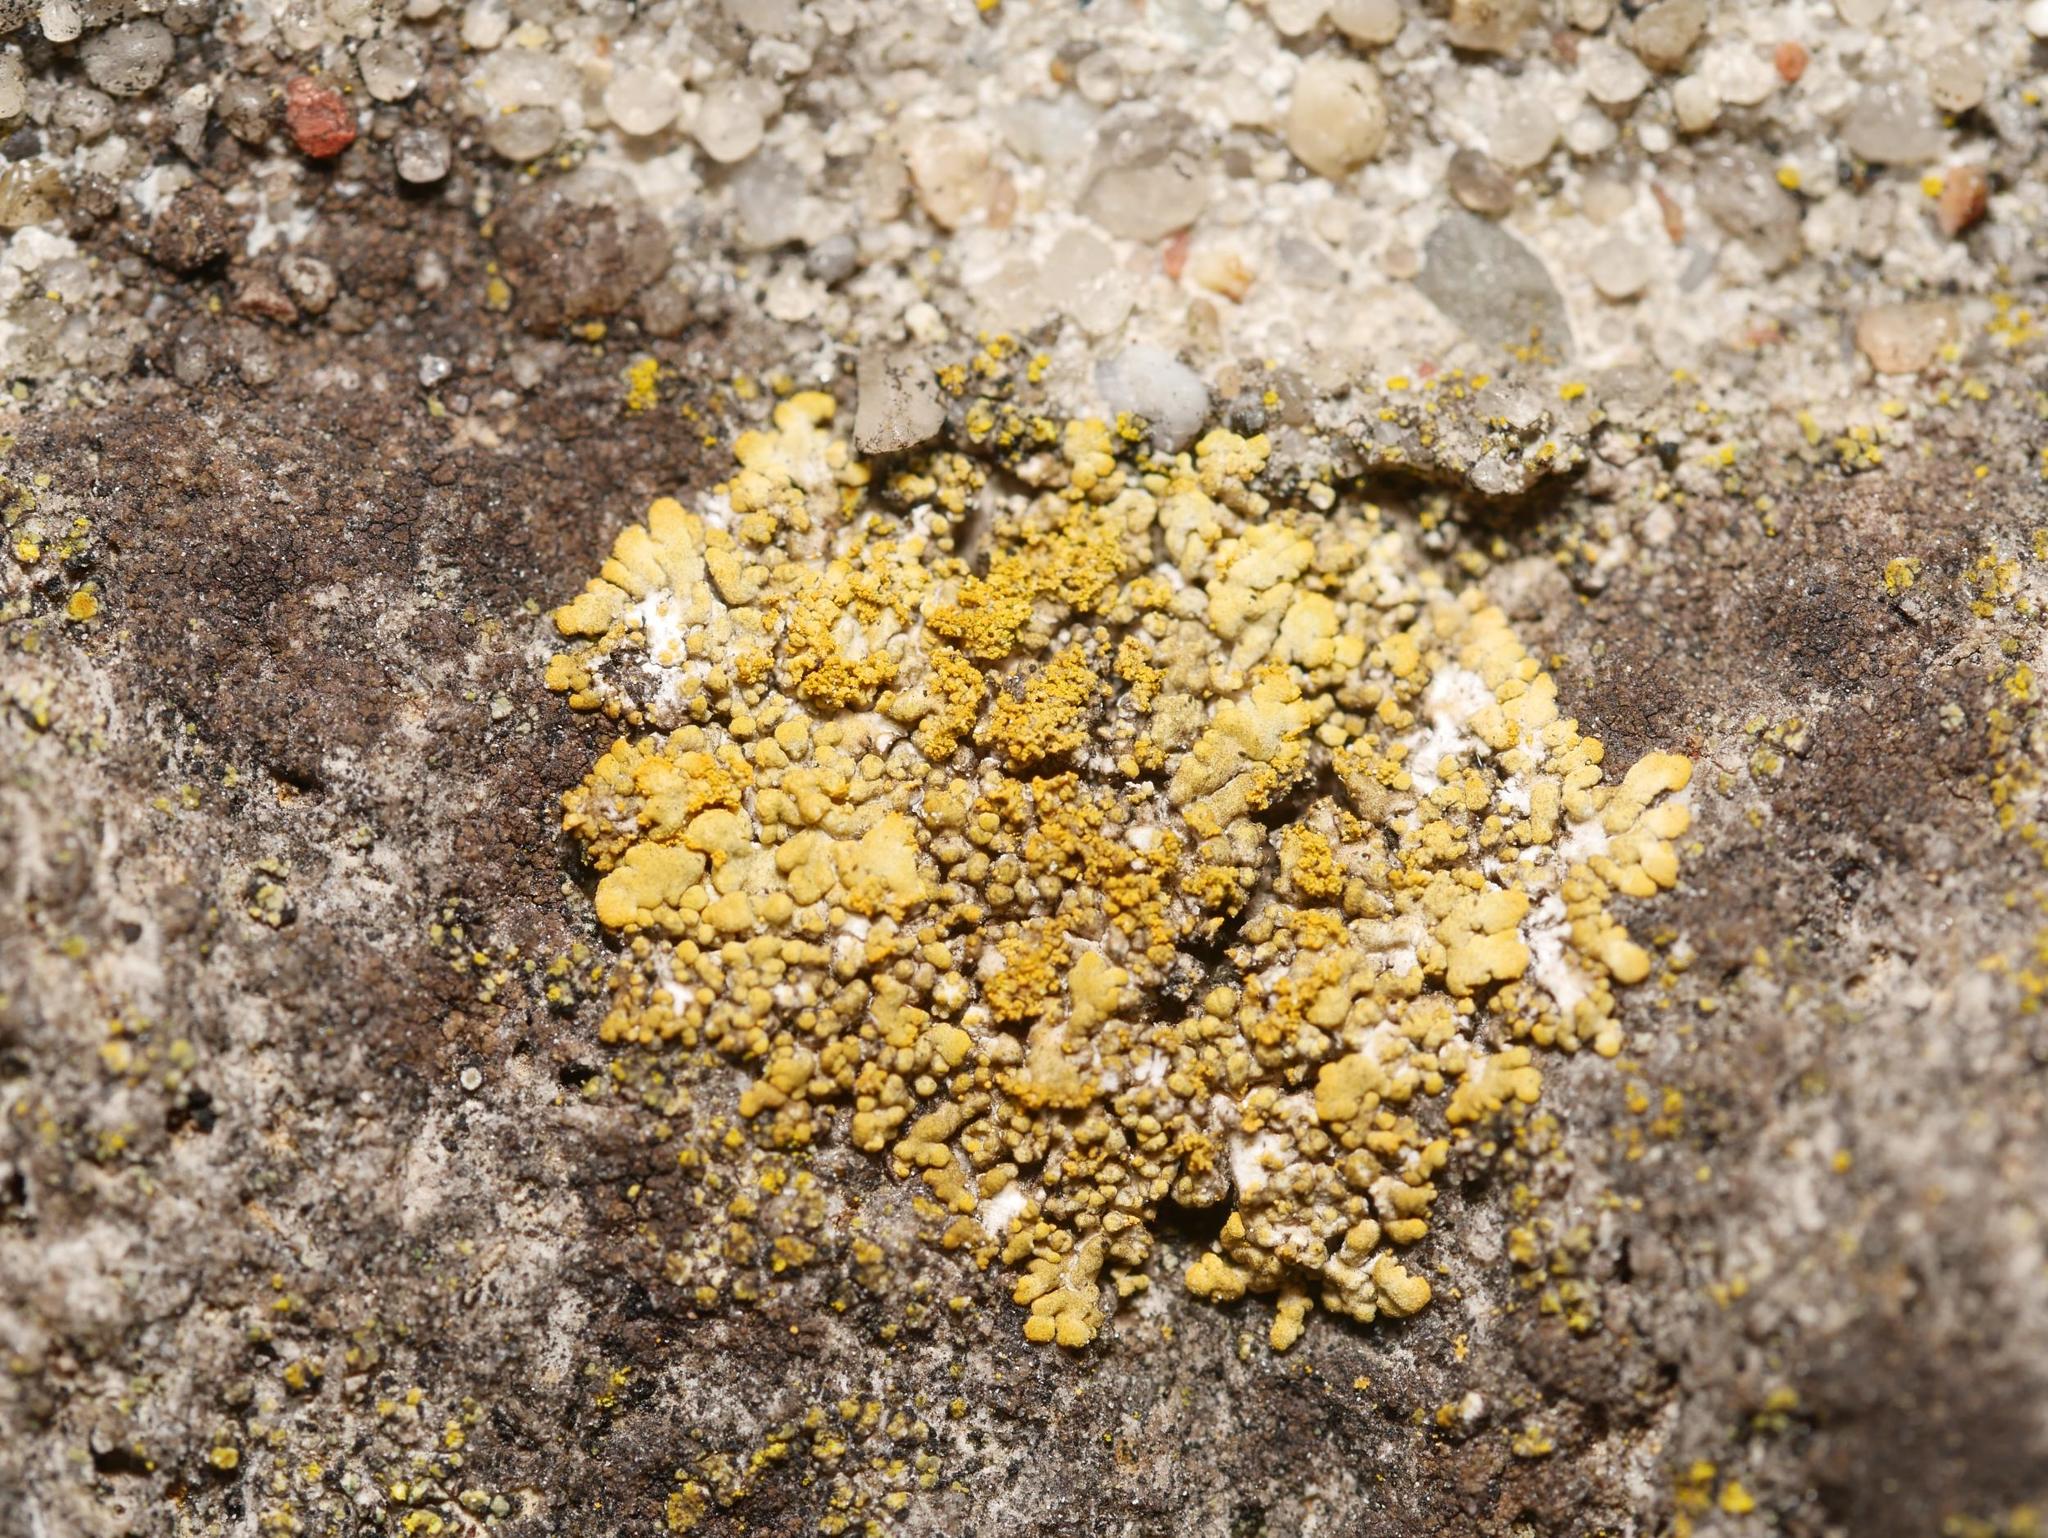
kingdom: Fungi
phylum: Ascomycota
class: Lecanoromycetes
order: Teloschistales
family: Teloschistaceae
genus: Calogaya
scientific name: Calogaya decipiens
